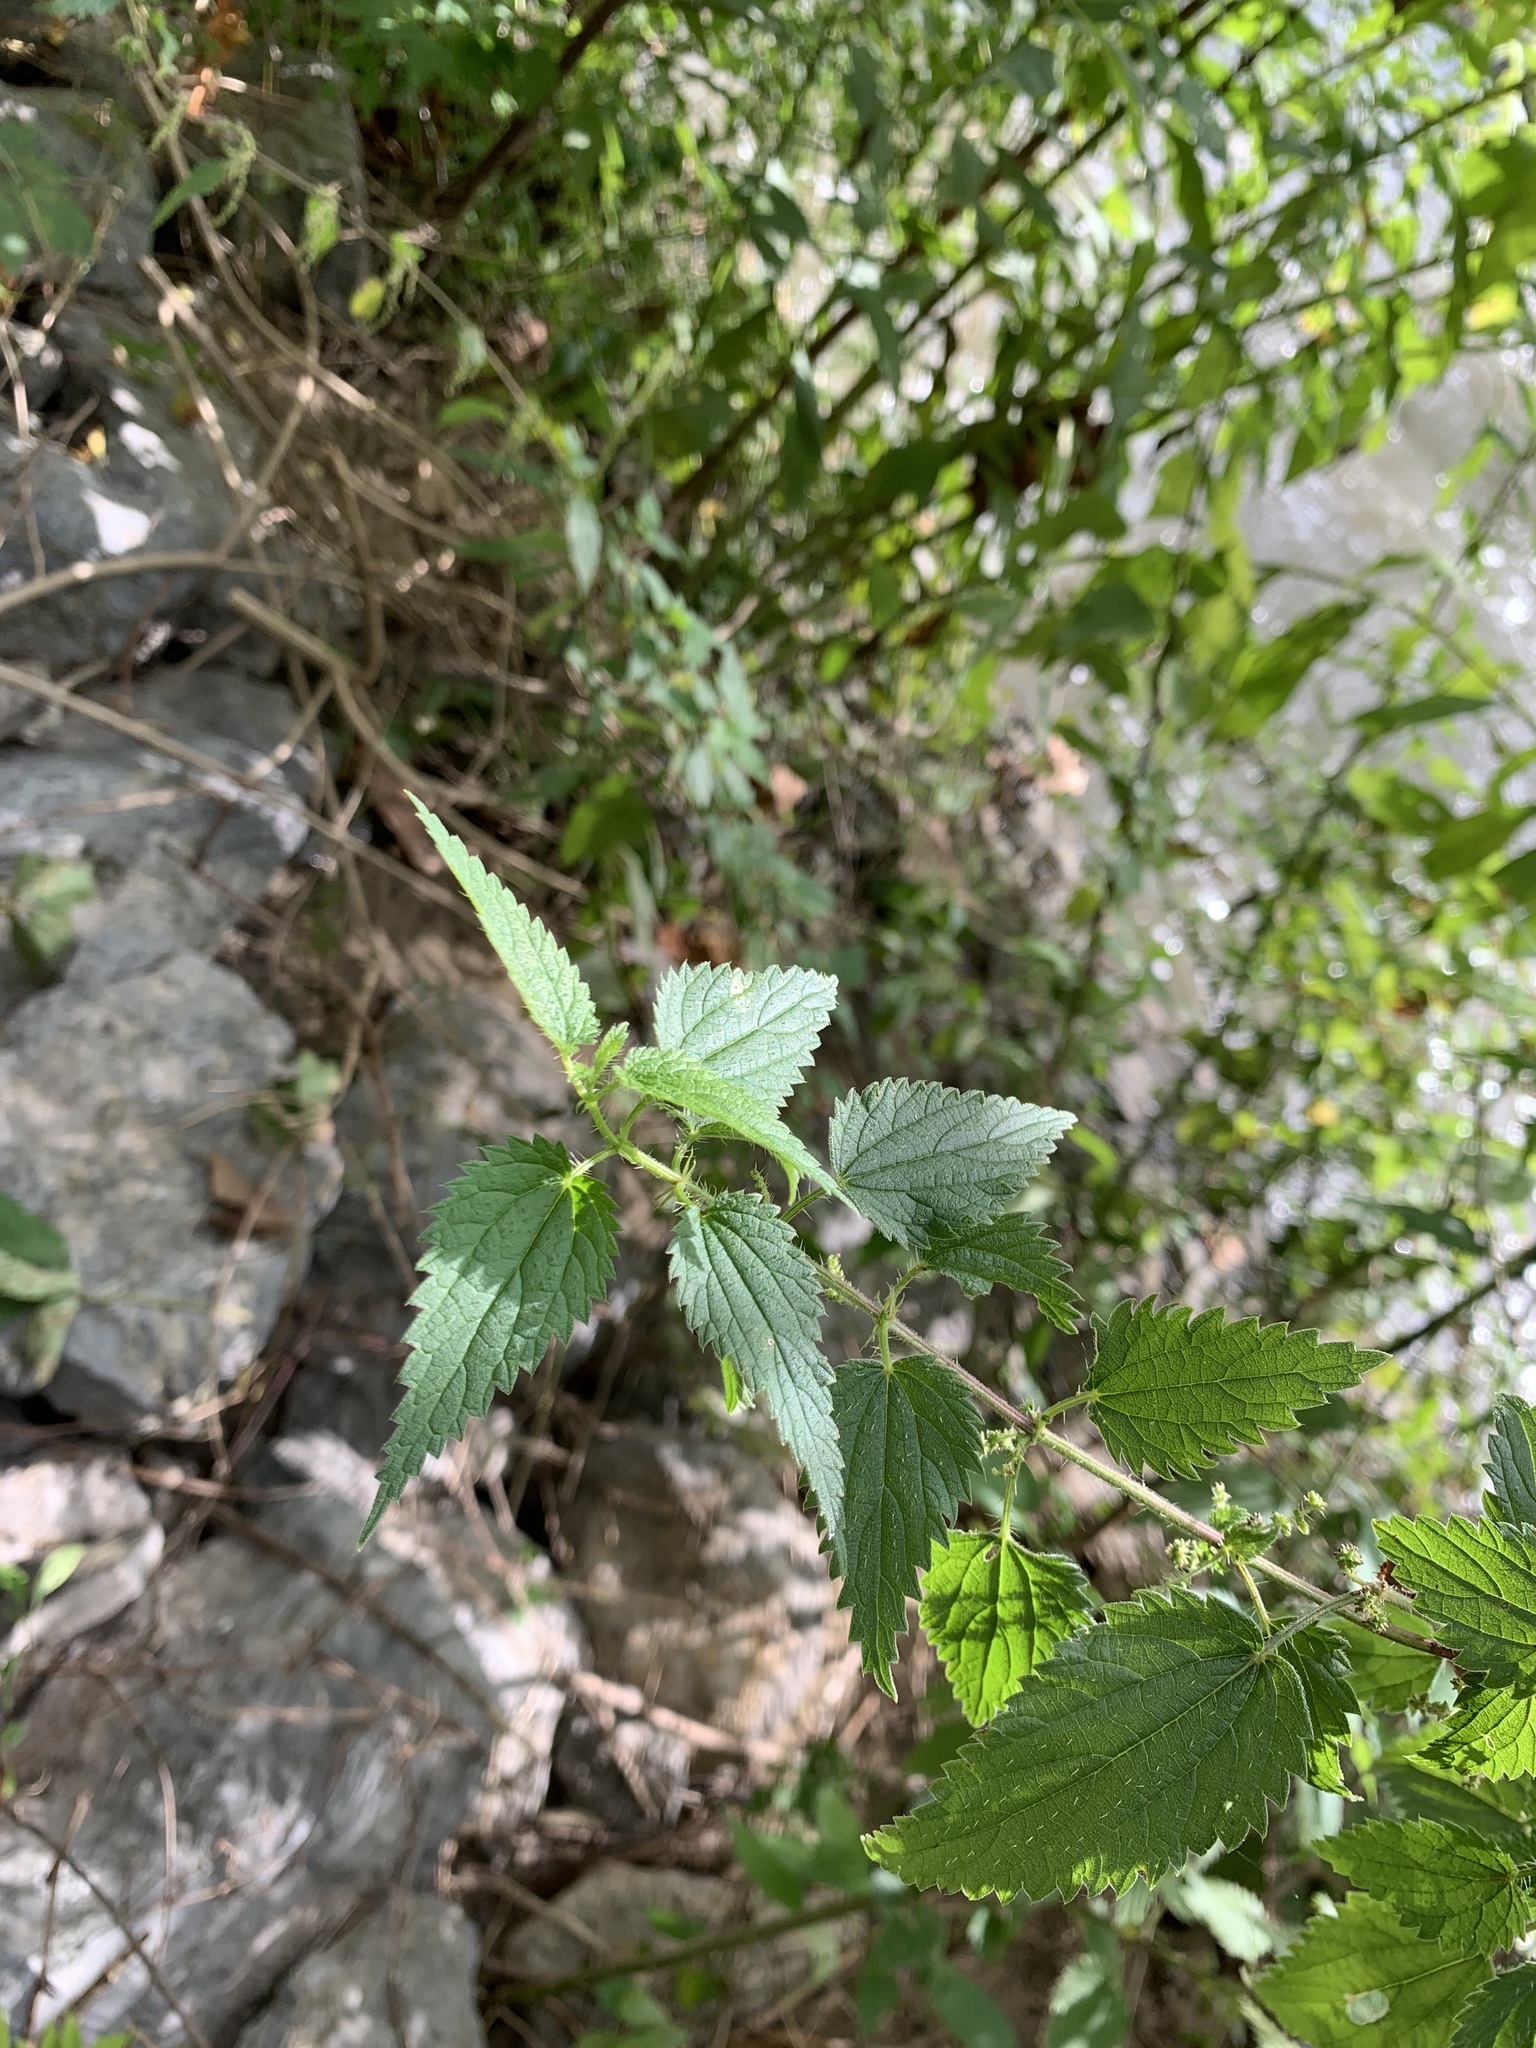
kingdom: Plantae
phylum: Tracheophyta
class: Magnoliopsida
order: Rosales
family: Urticaceae
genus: Urtica
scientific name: Urtica dioica
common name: Common nettle
